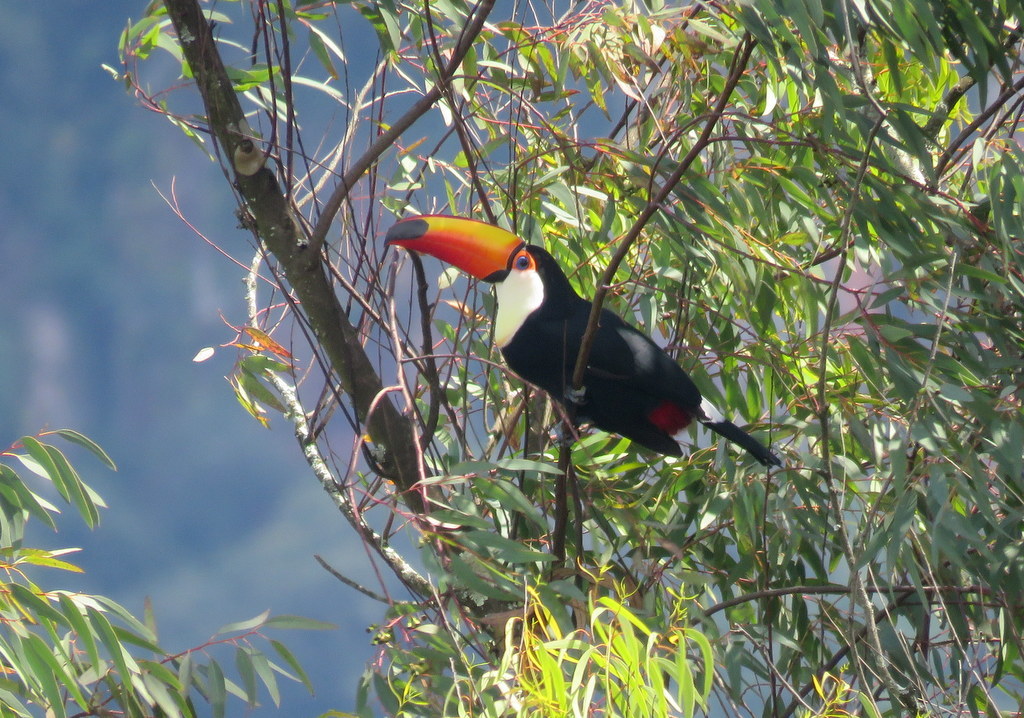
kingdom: Animalia
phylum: Chordata
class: Aves
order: Piciformes
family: Ramphastidae
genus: Ramphastos
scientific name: Ramphastos toco
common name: Toco toucan
